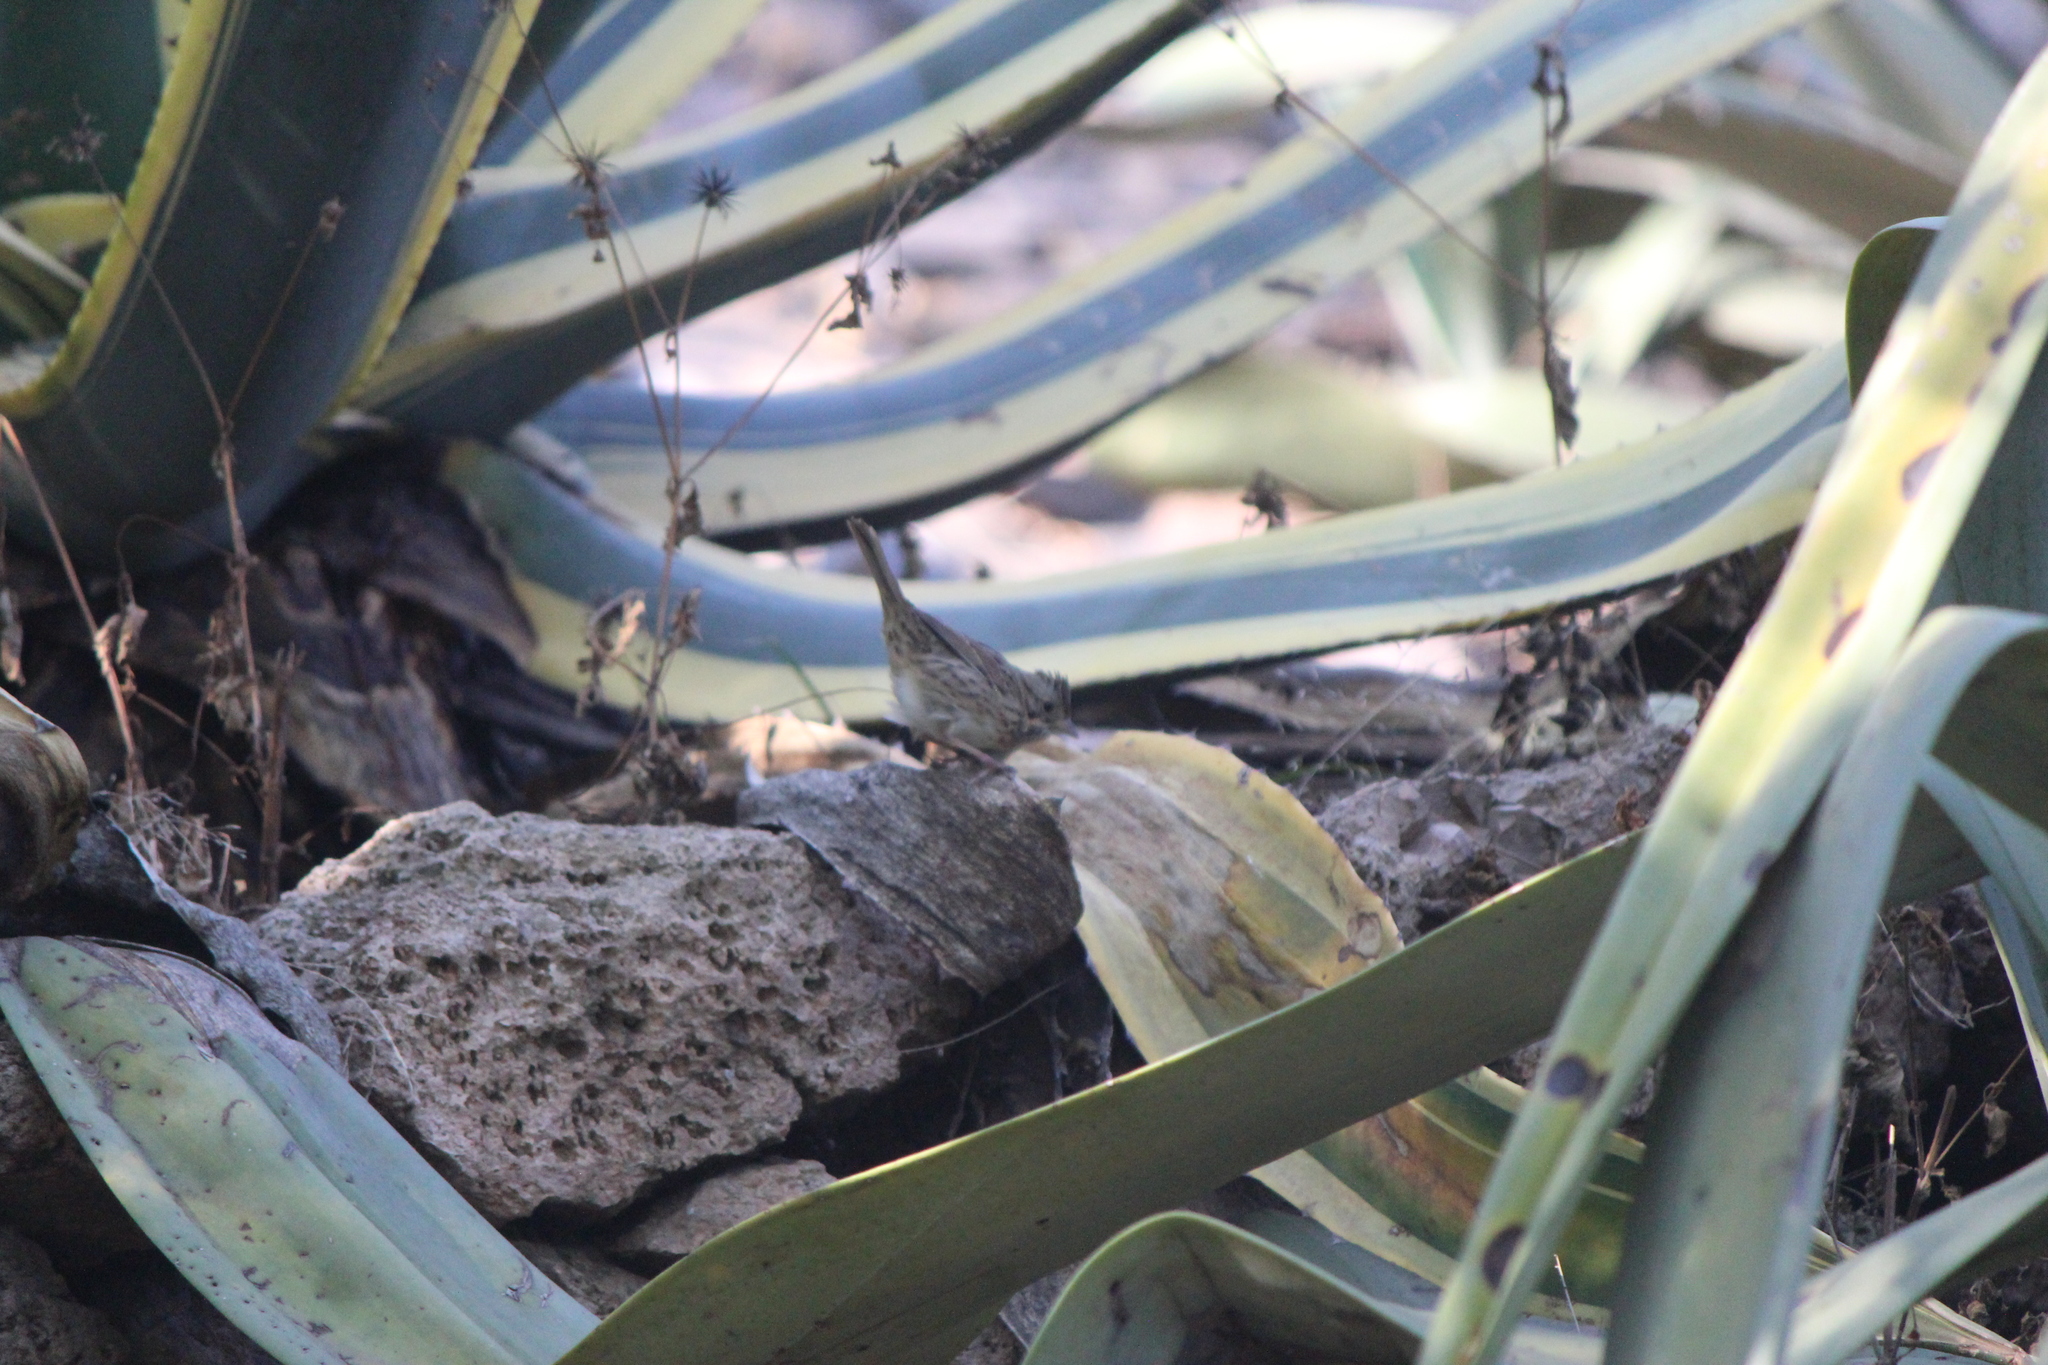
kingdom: Animalia
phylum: Chordata
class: Aves
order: Passeriformes
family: Passerellidae
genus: Melospiza
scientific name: Melospiza lincolnii
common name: Lincoln's sparrow
